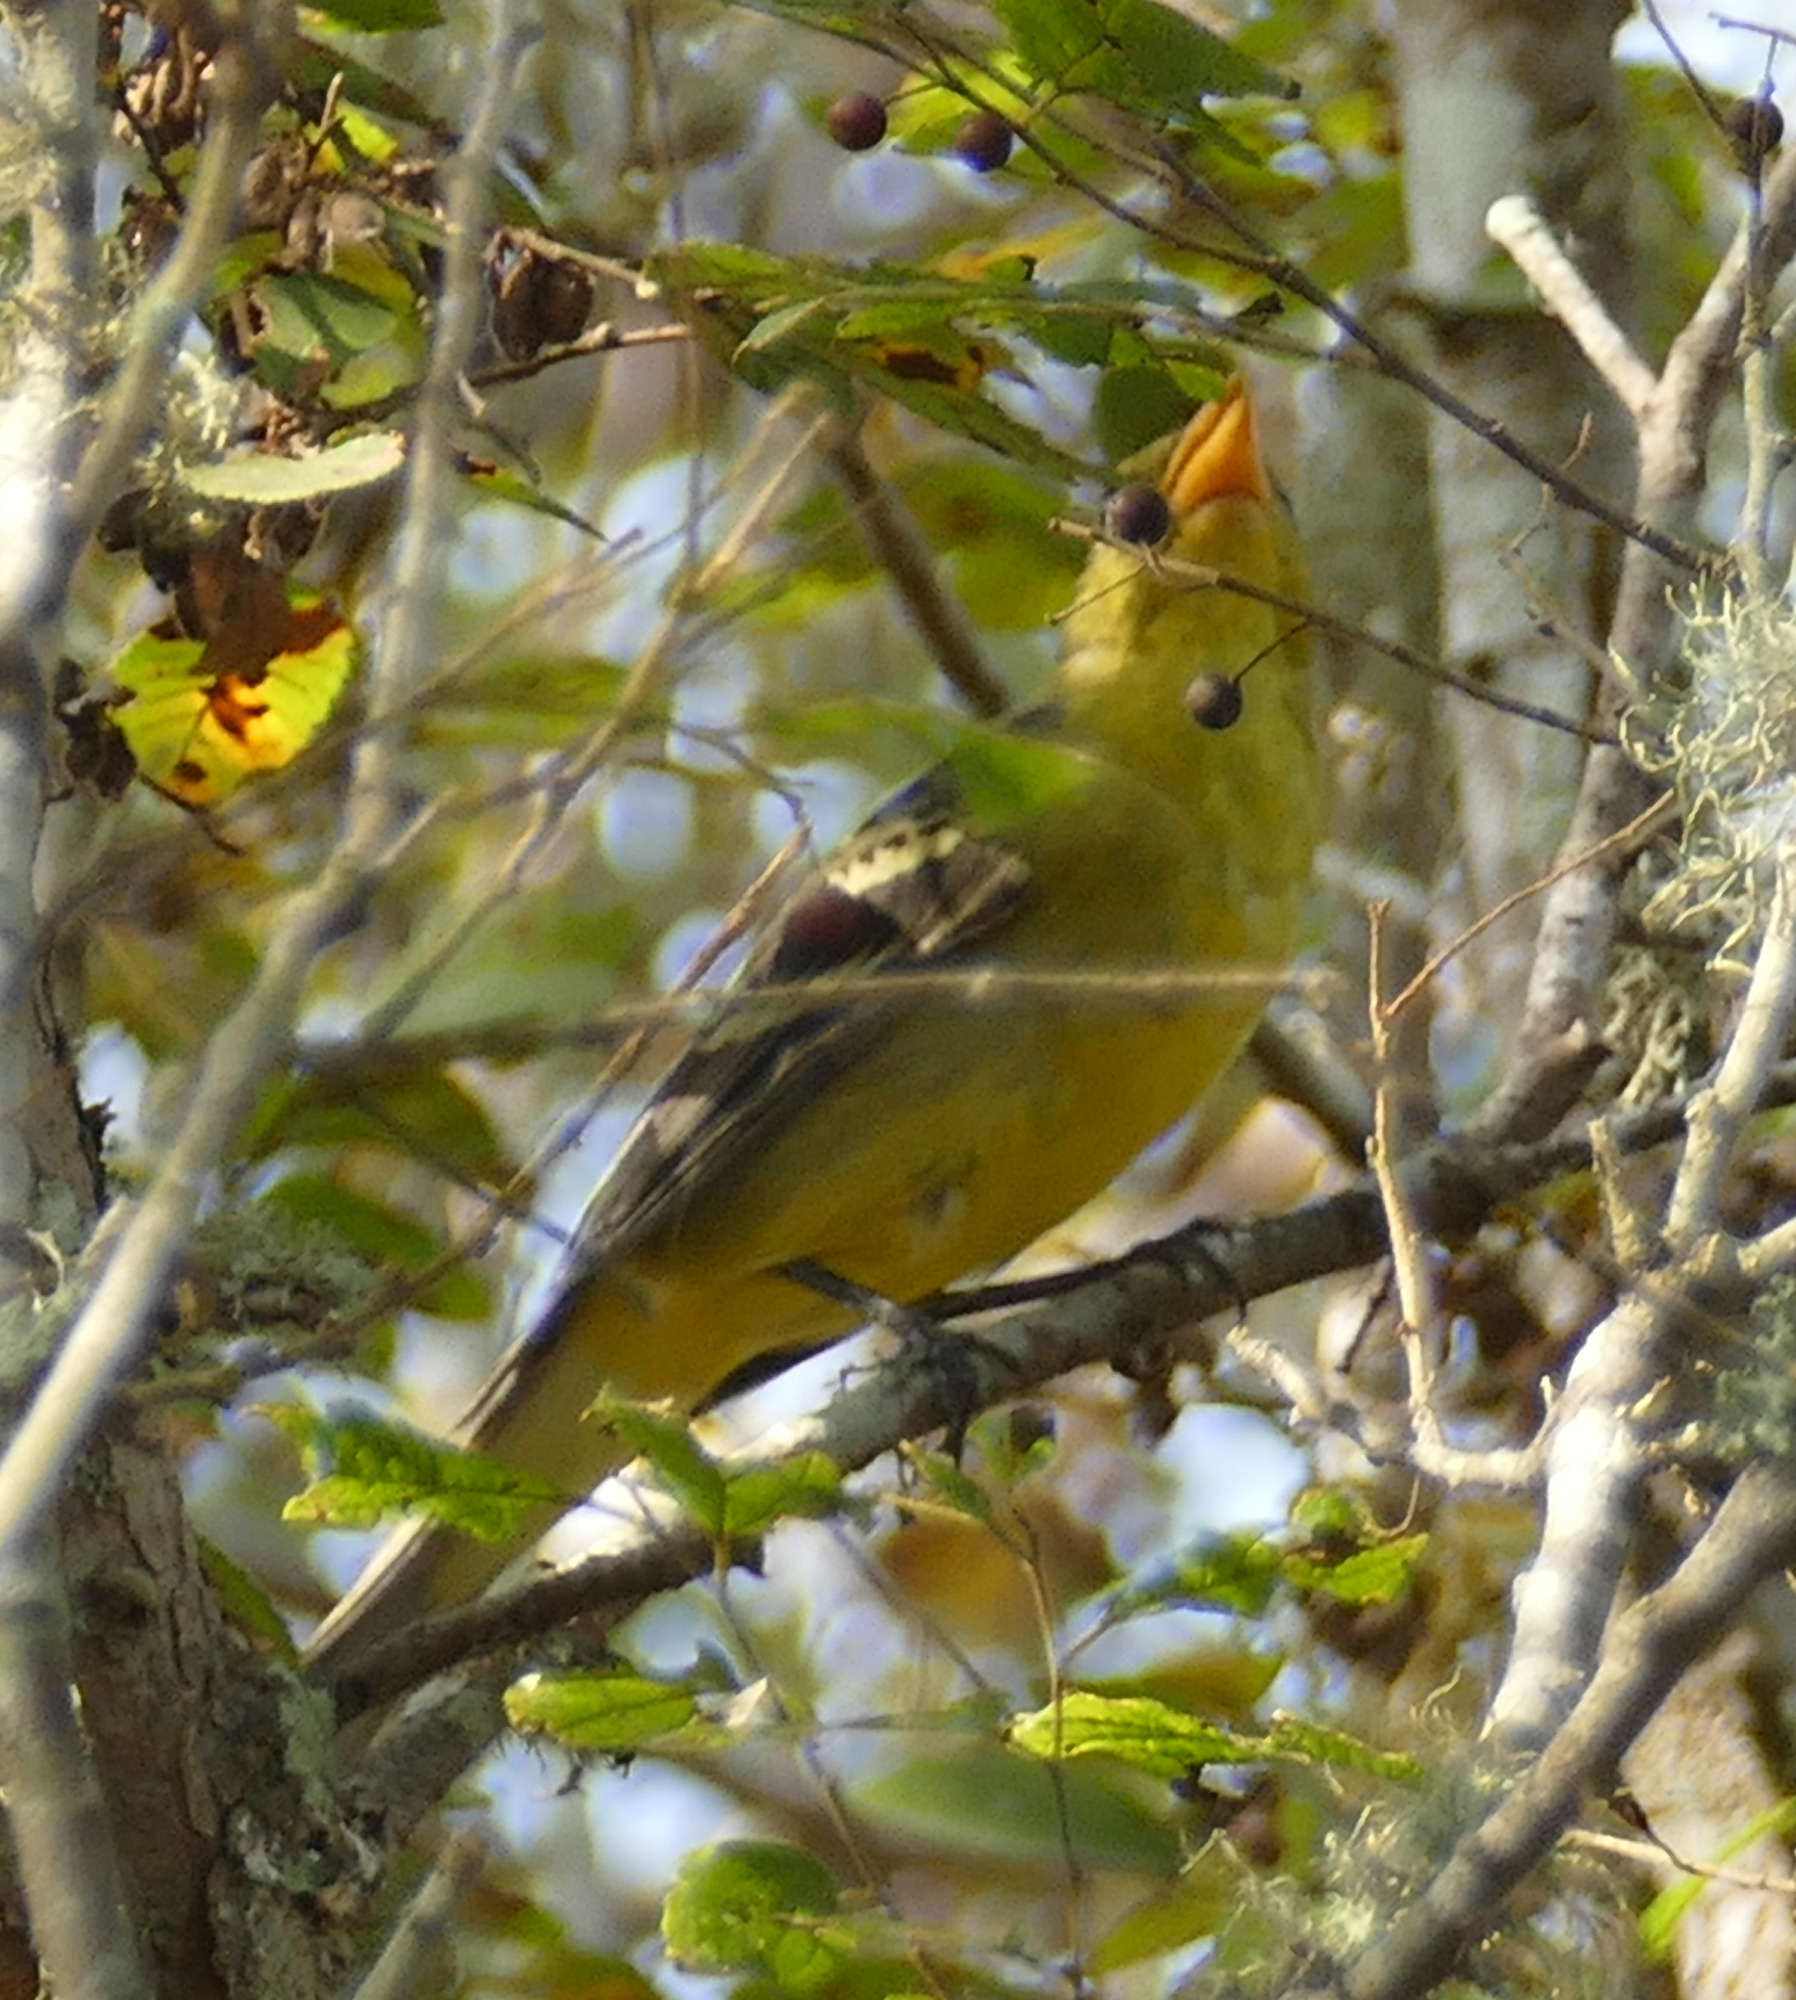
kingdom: Animalia
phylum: Chordata
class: Aves
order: Passeriformes
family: Cardinalidae
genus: Piranga
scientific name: Piranga ludoviciana
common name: Western tanager
